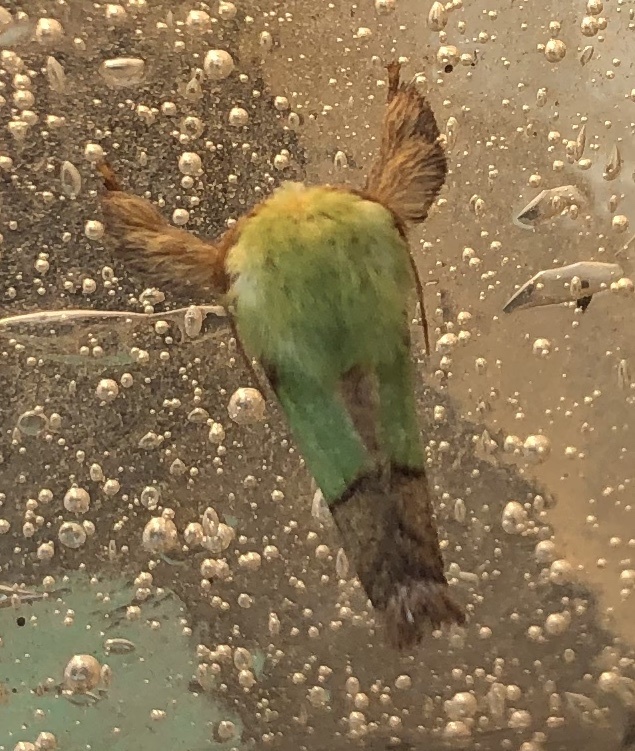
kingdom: Animalia
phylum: Arthropoda
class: Insecta
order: Lepidoptera
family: Limacodidae
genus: Parasa
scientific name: Parasa chloris
